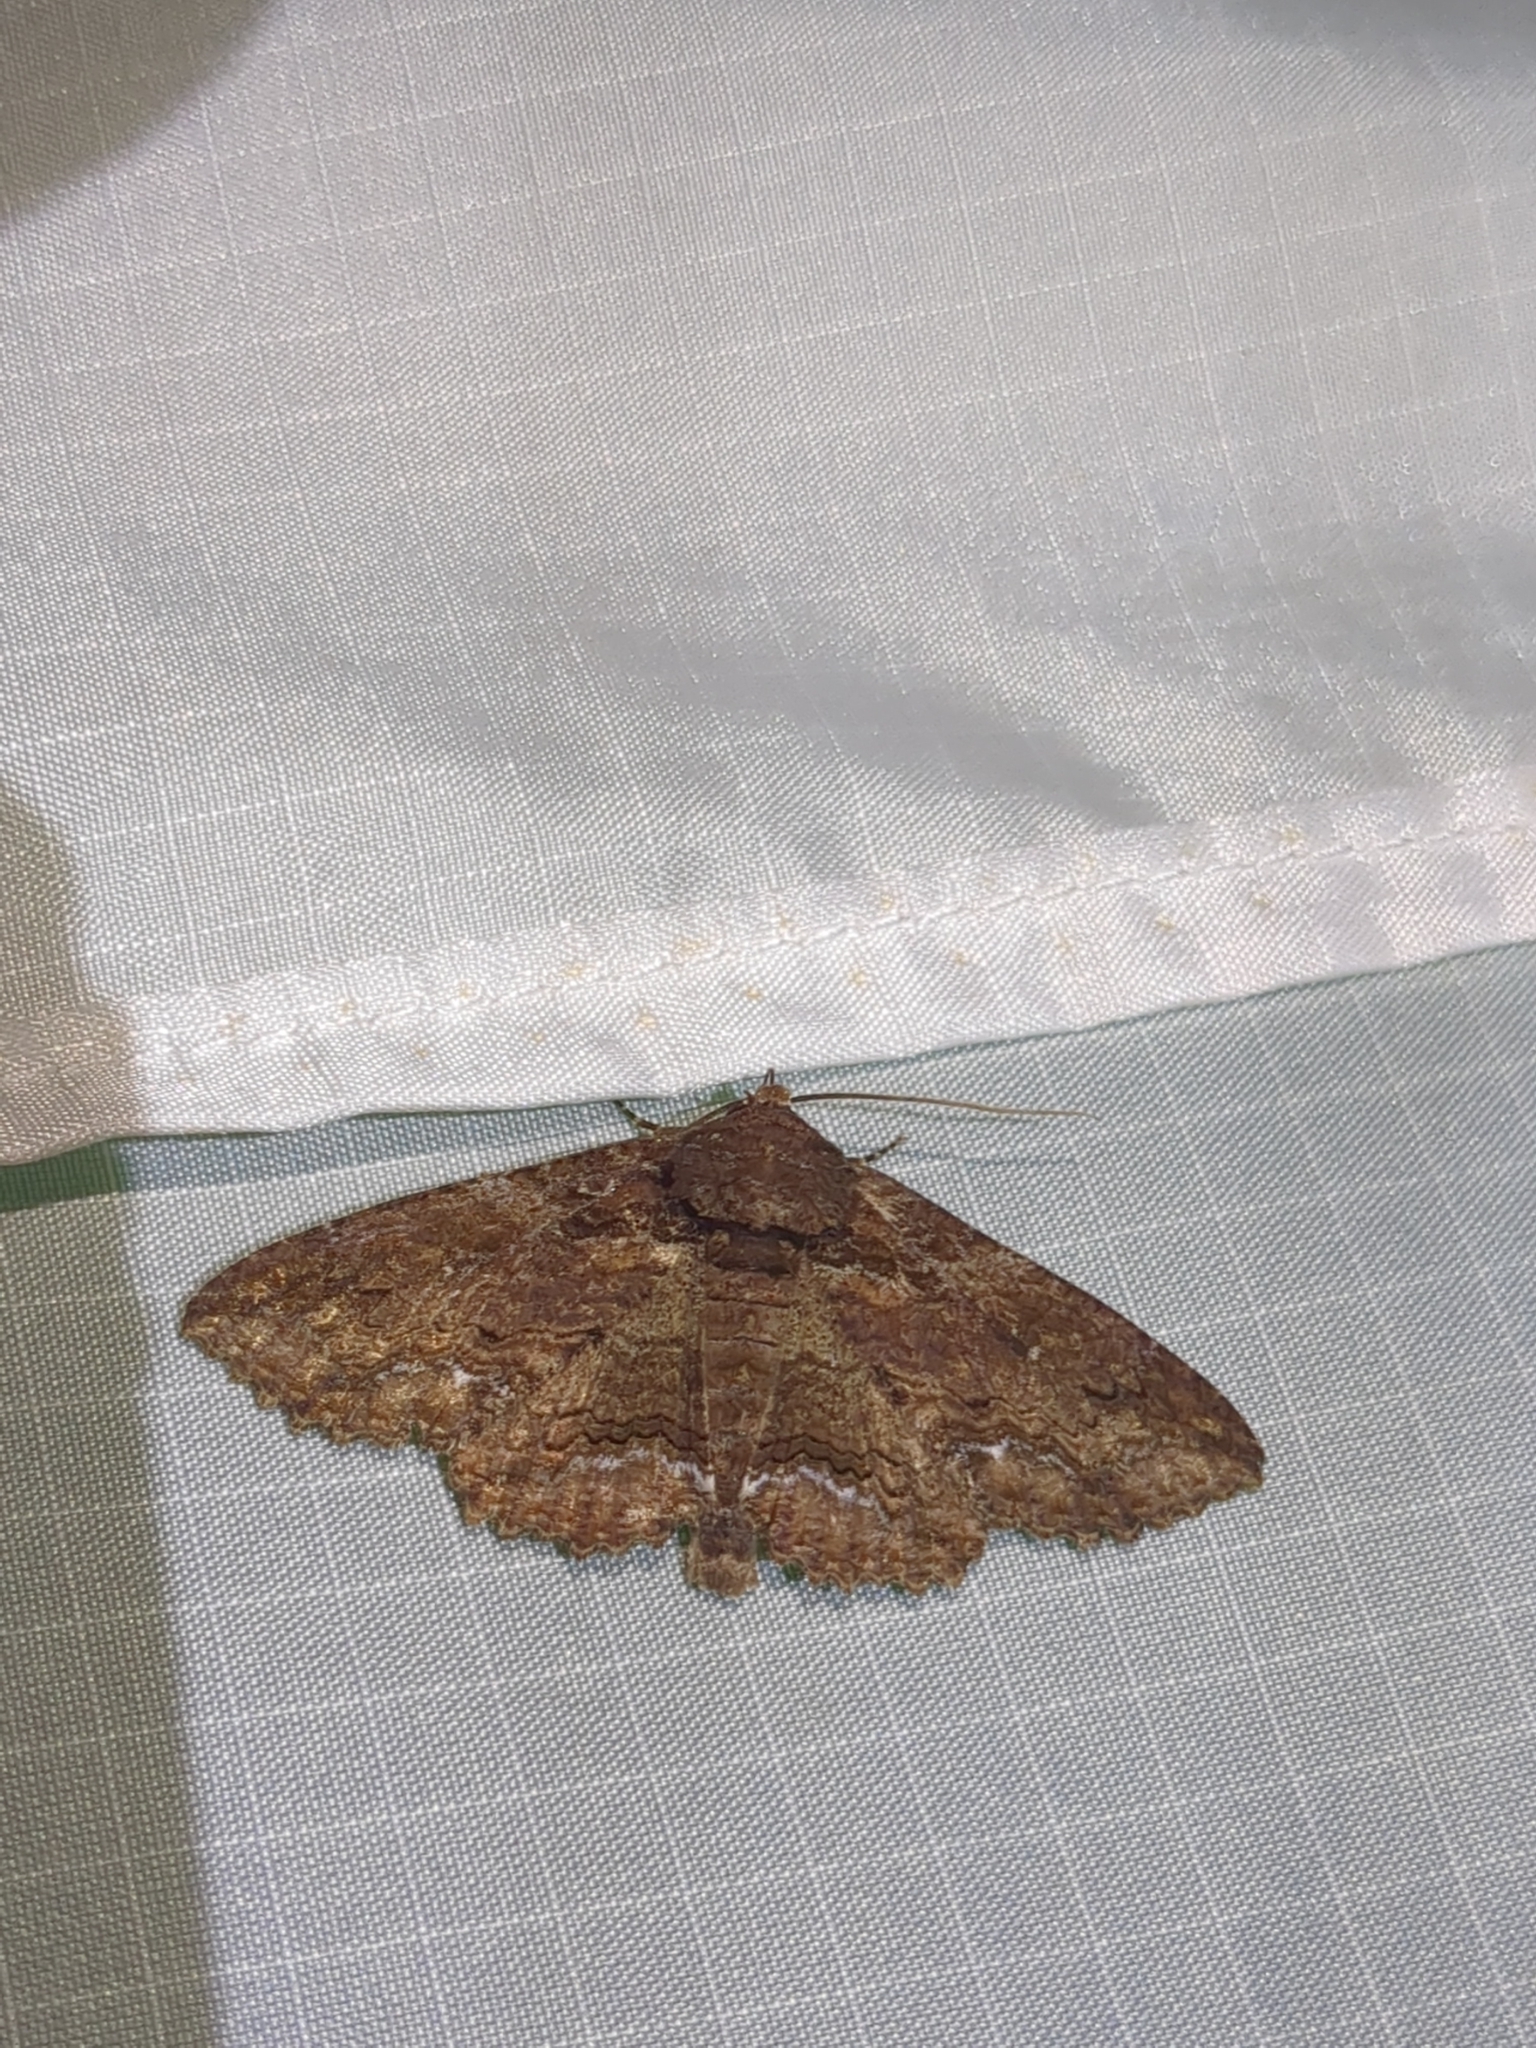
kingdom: Animalia
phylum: Arthropoda
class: Insecta
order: Lepidoptera
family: Erebidae
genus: Zale
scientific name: Zale lunata
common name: Lunate zale moth
